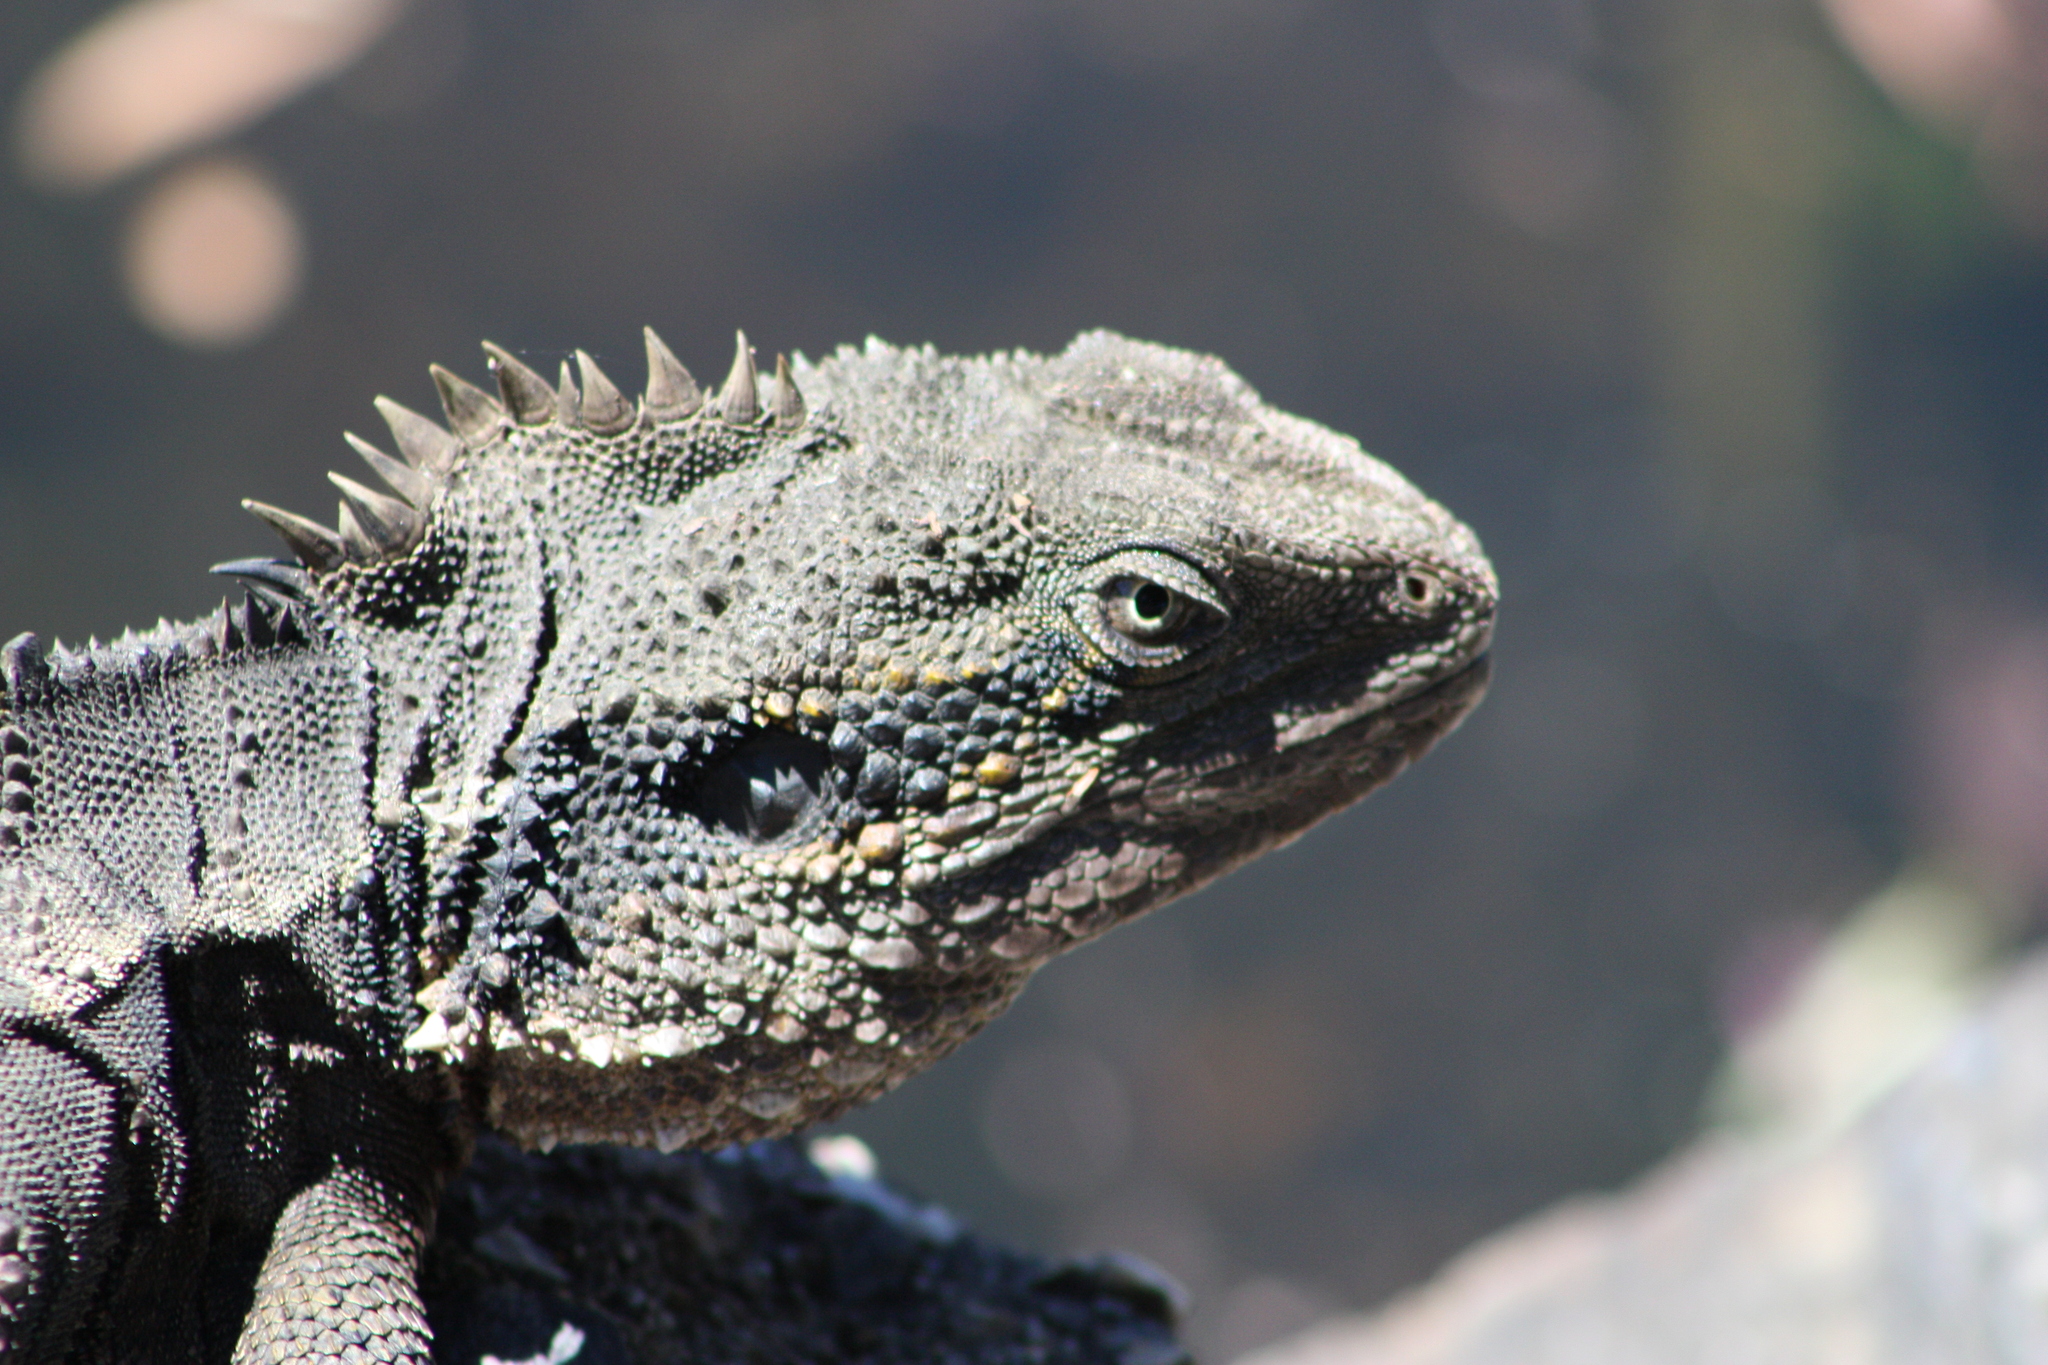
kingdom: Animalia
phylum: Chordata
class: Squamata
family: Agamidae
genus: Intellagama
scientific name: Intellagama lesueurii
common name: Eastern water dragon
